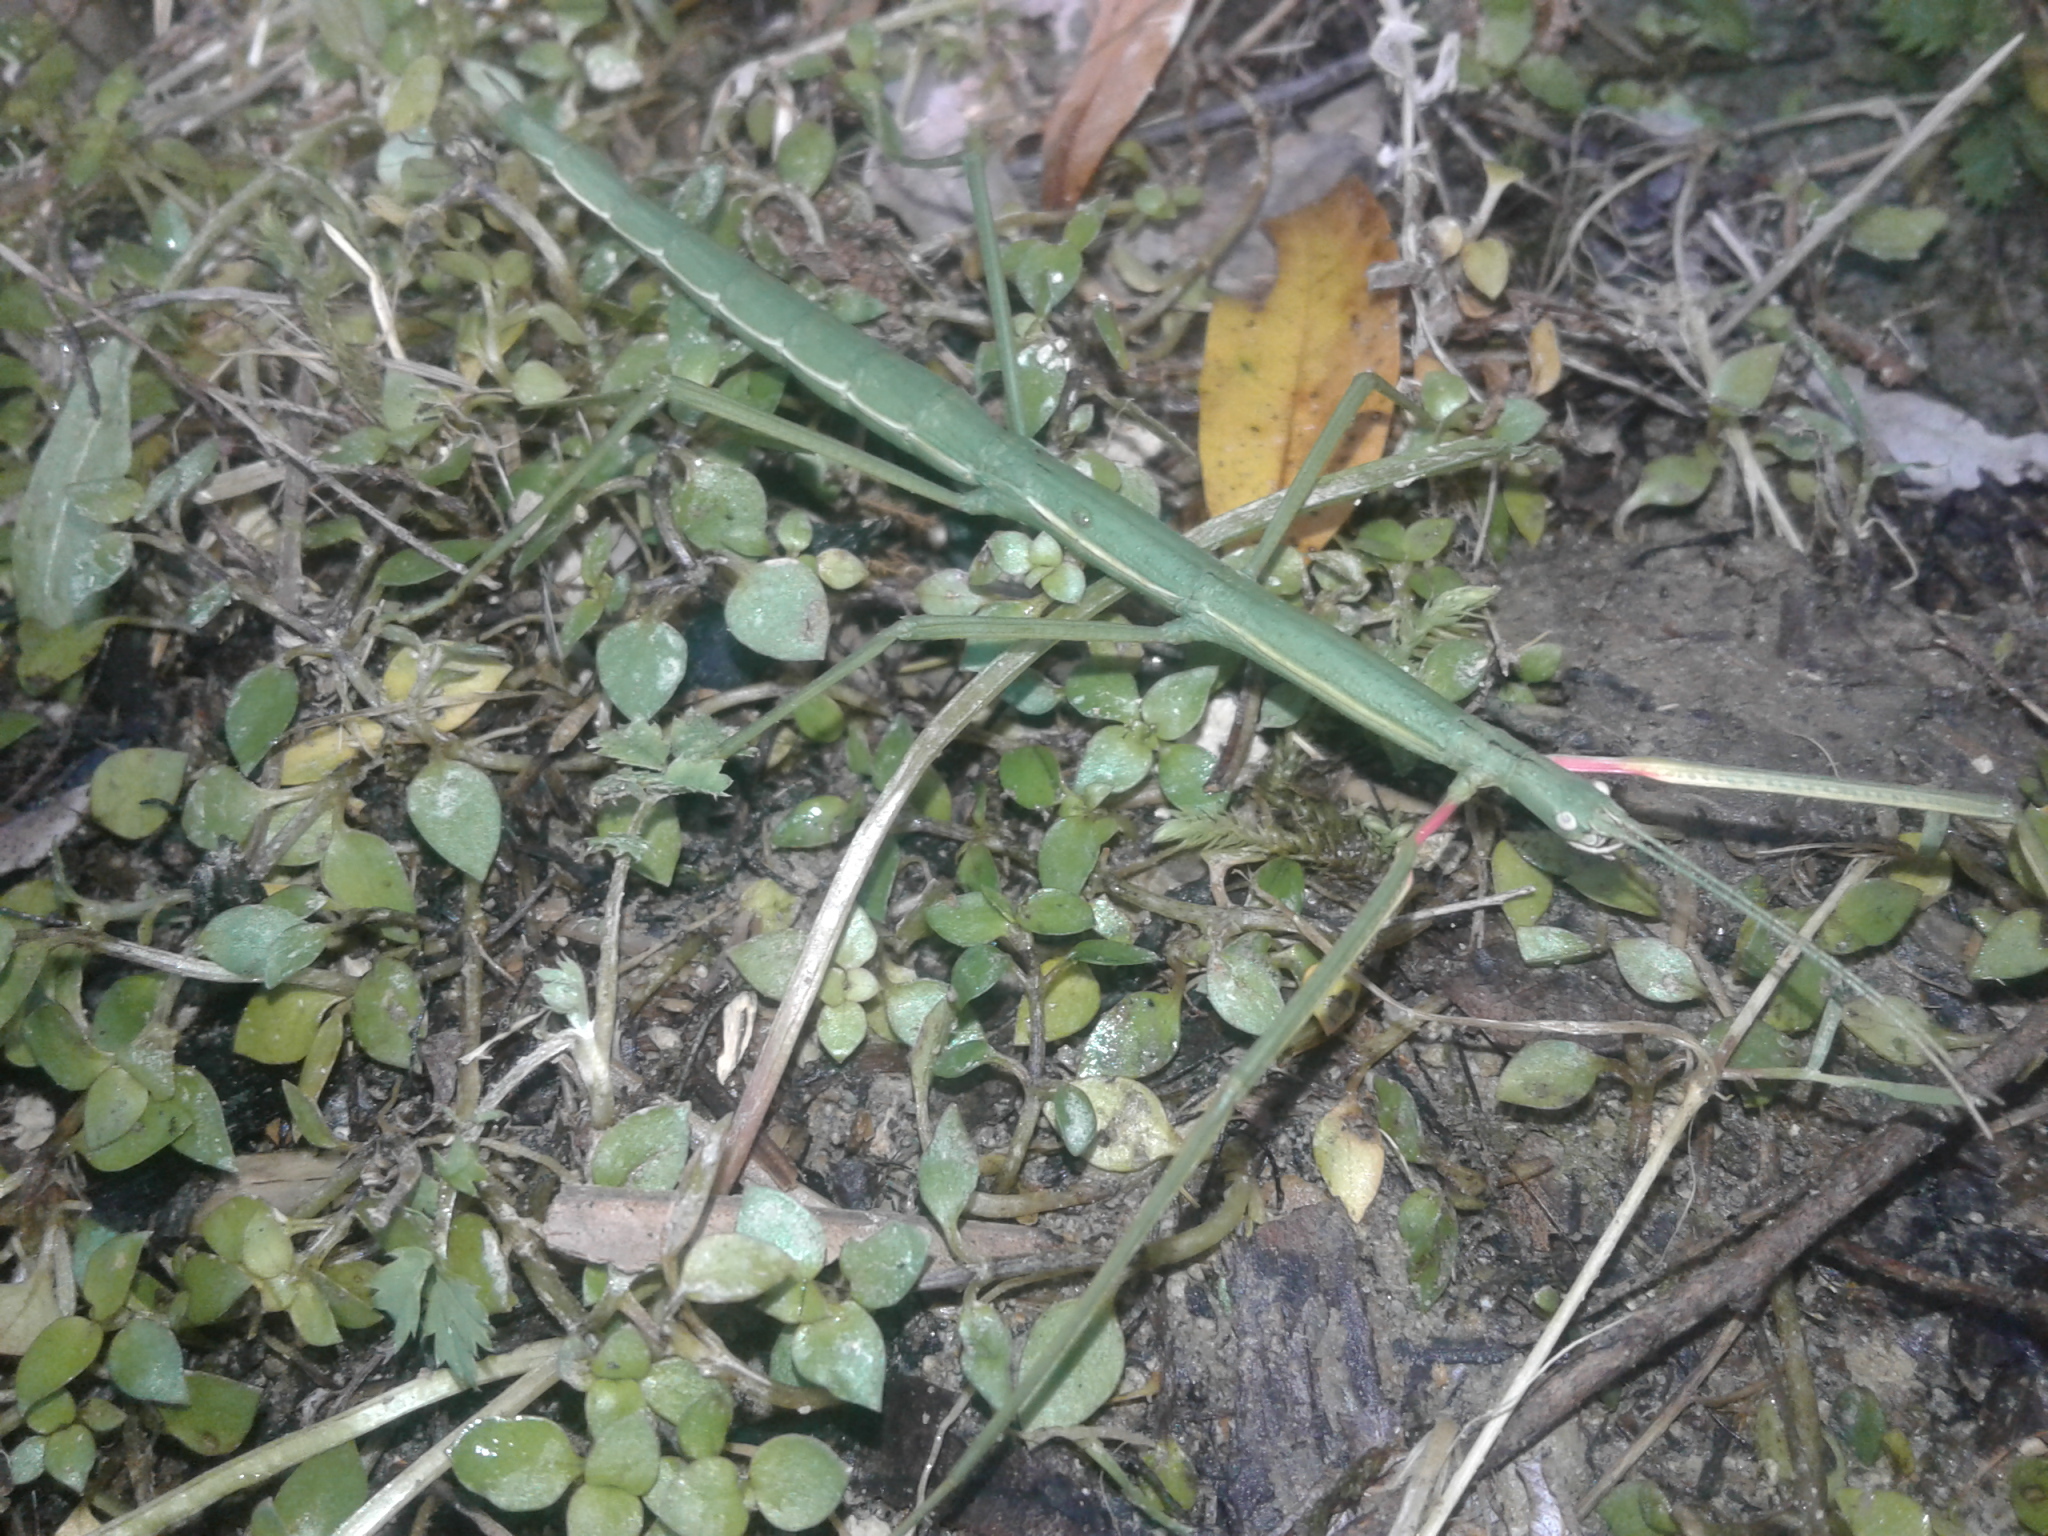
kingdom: Animalia
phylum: Arthropoda
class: Insecta
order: Phasmida
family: Phasmatidae
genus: Clitarchus
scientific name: Clitarchus hookeri
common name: Smooth stick insect
